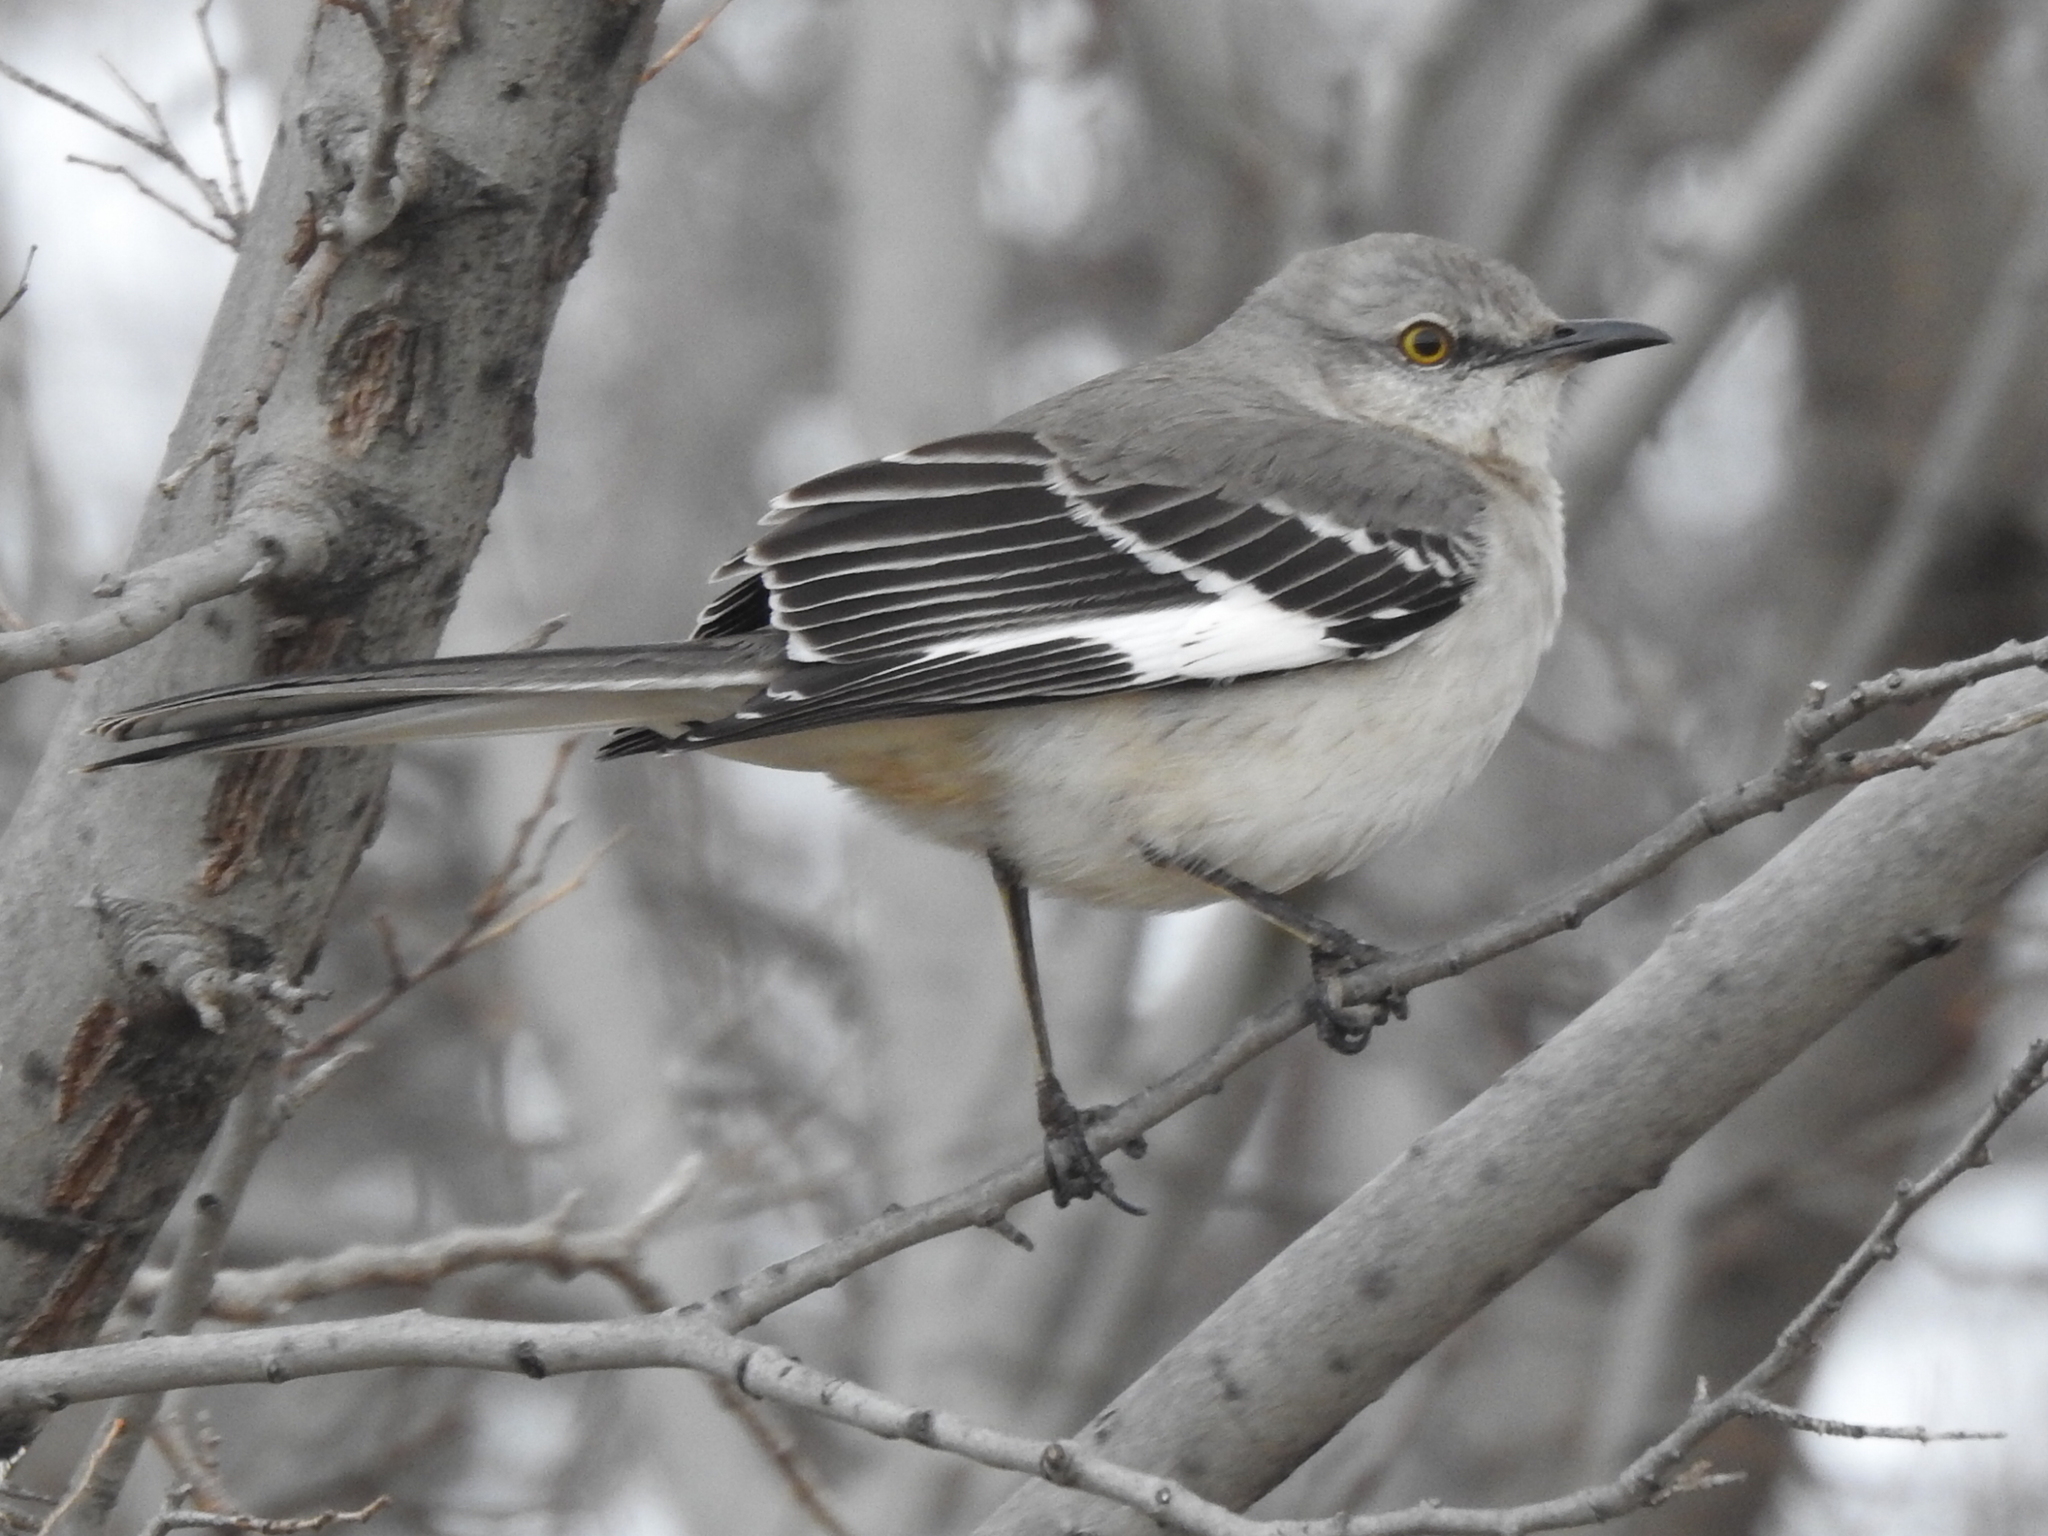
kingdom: Animalia
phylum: Chordata
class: Aves
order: Passeriformes
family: Mimidae
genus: Mimus
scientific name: Mimus polyglottos
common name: Northern mockingbird
